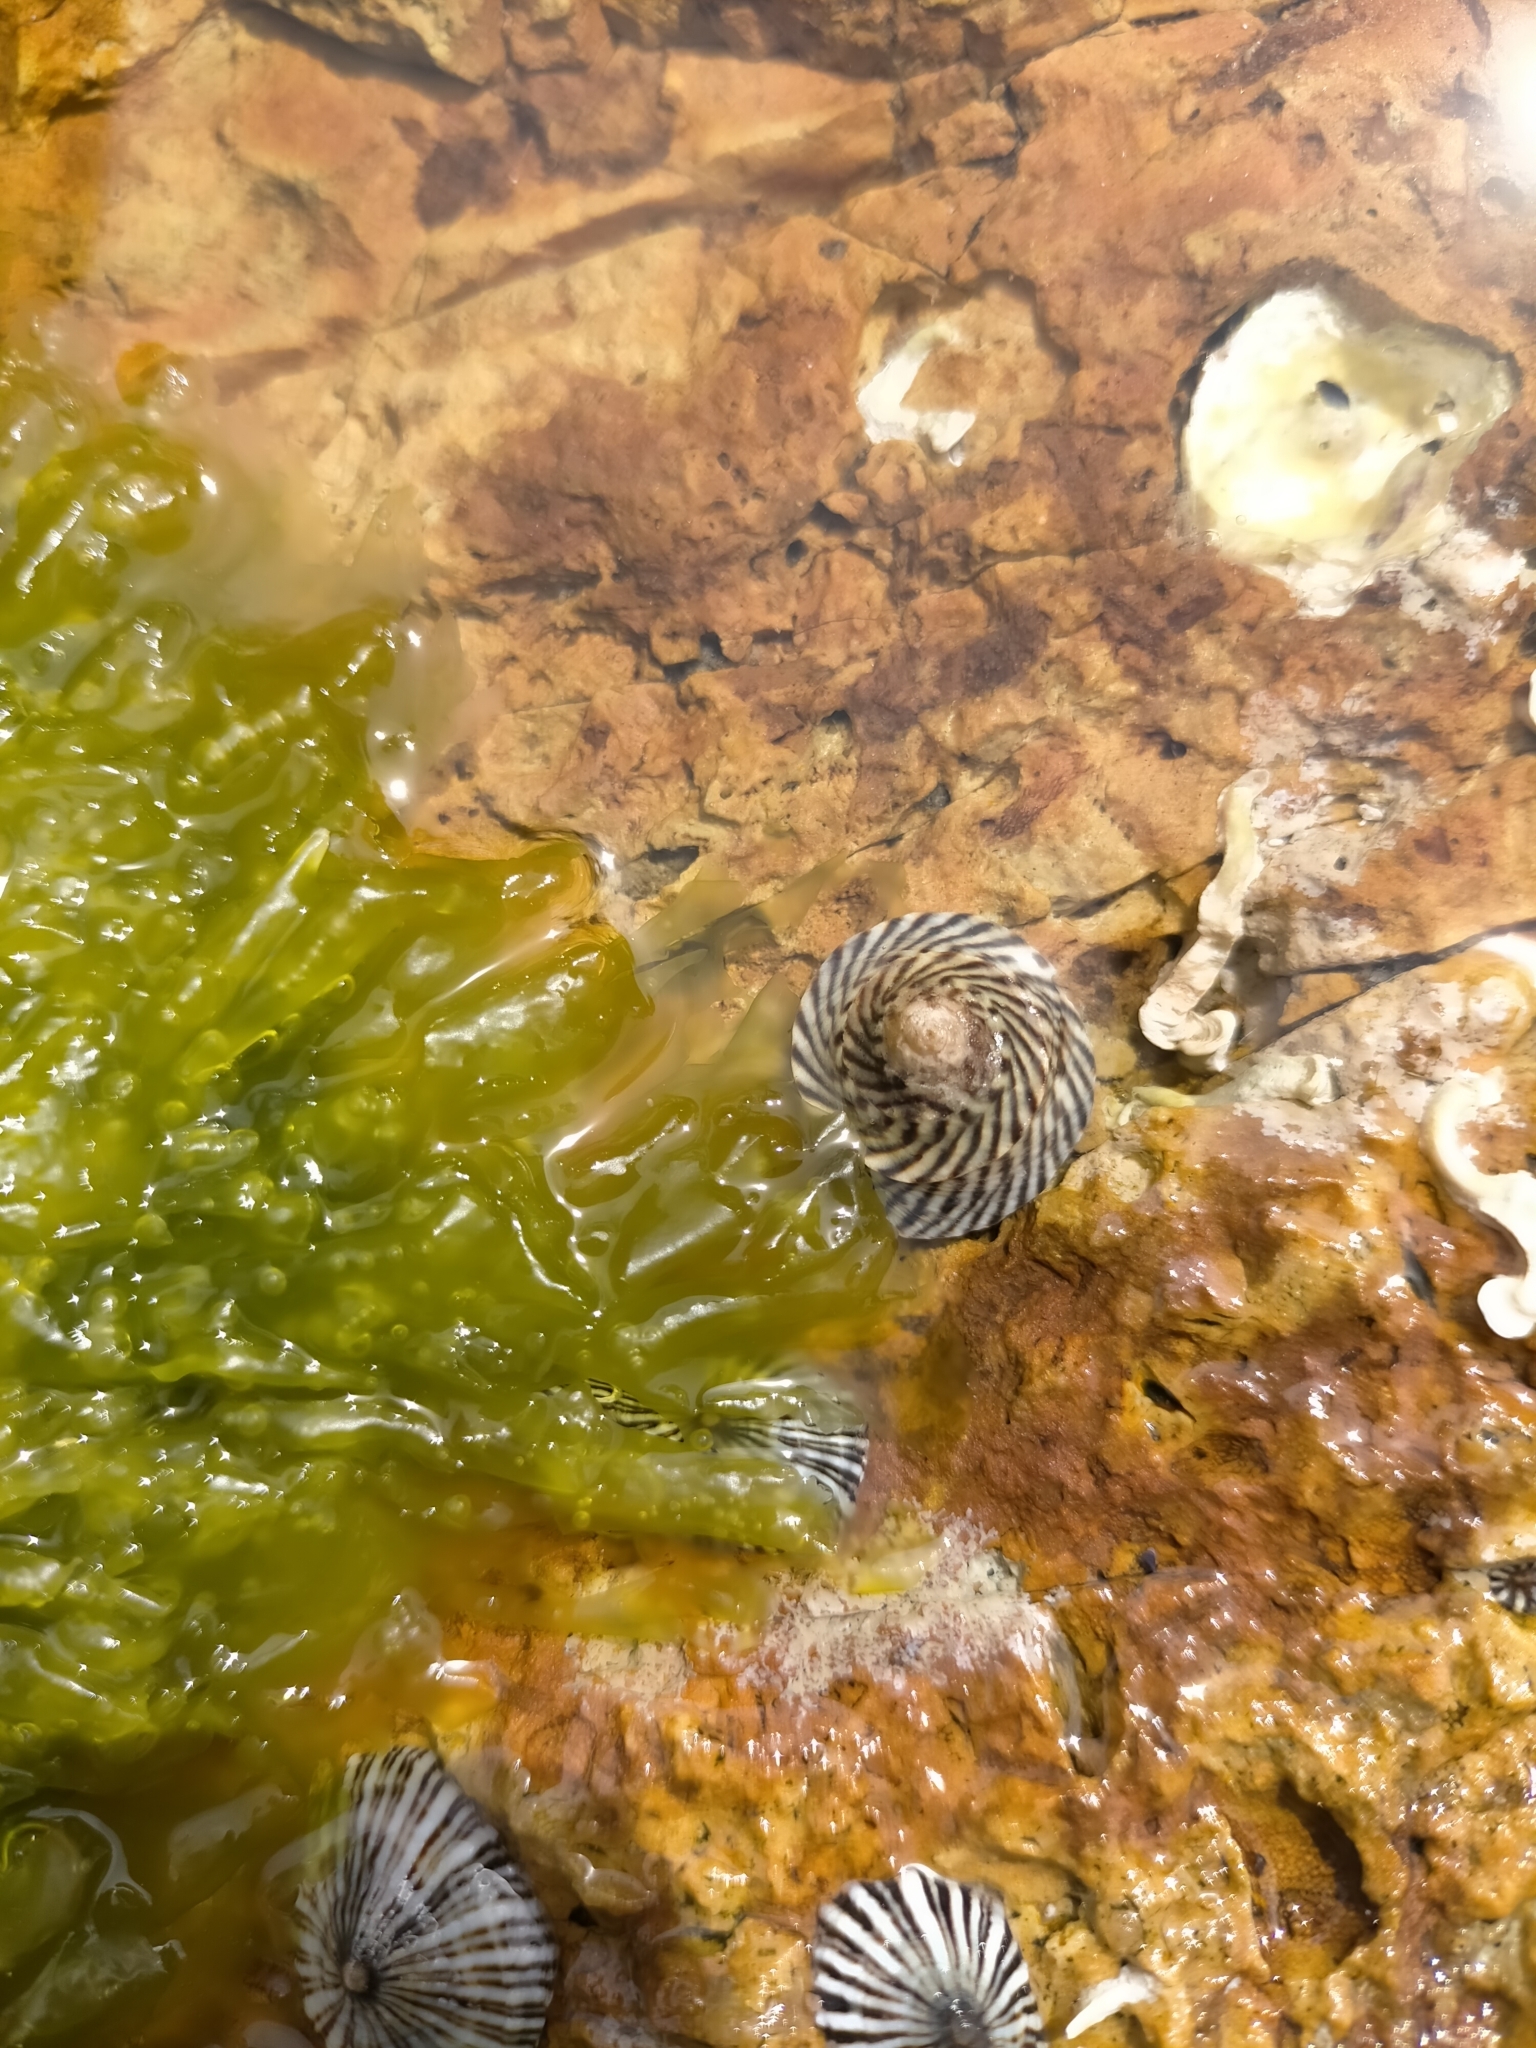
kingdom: Animalia
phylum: Mollusca
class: Gastropoda
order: Littorinimorpha
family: Littorinidae
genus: Bembicium
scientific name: Bembicium nanum
